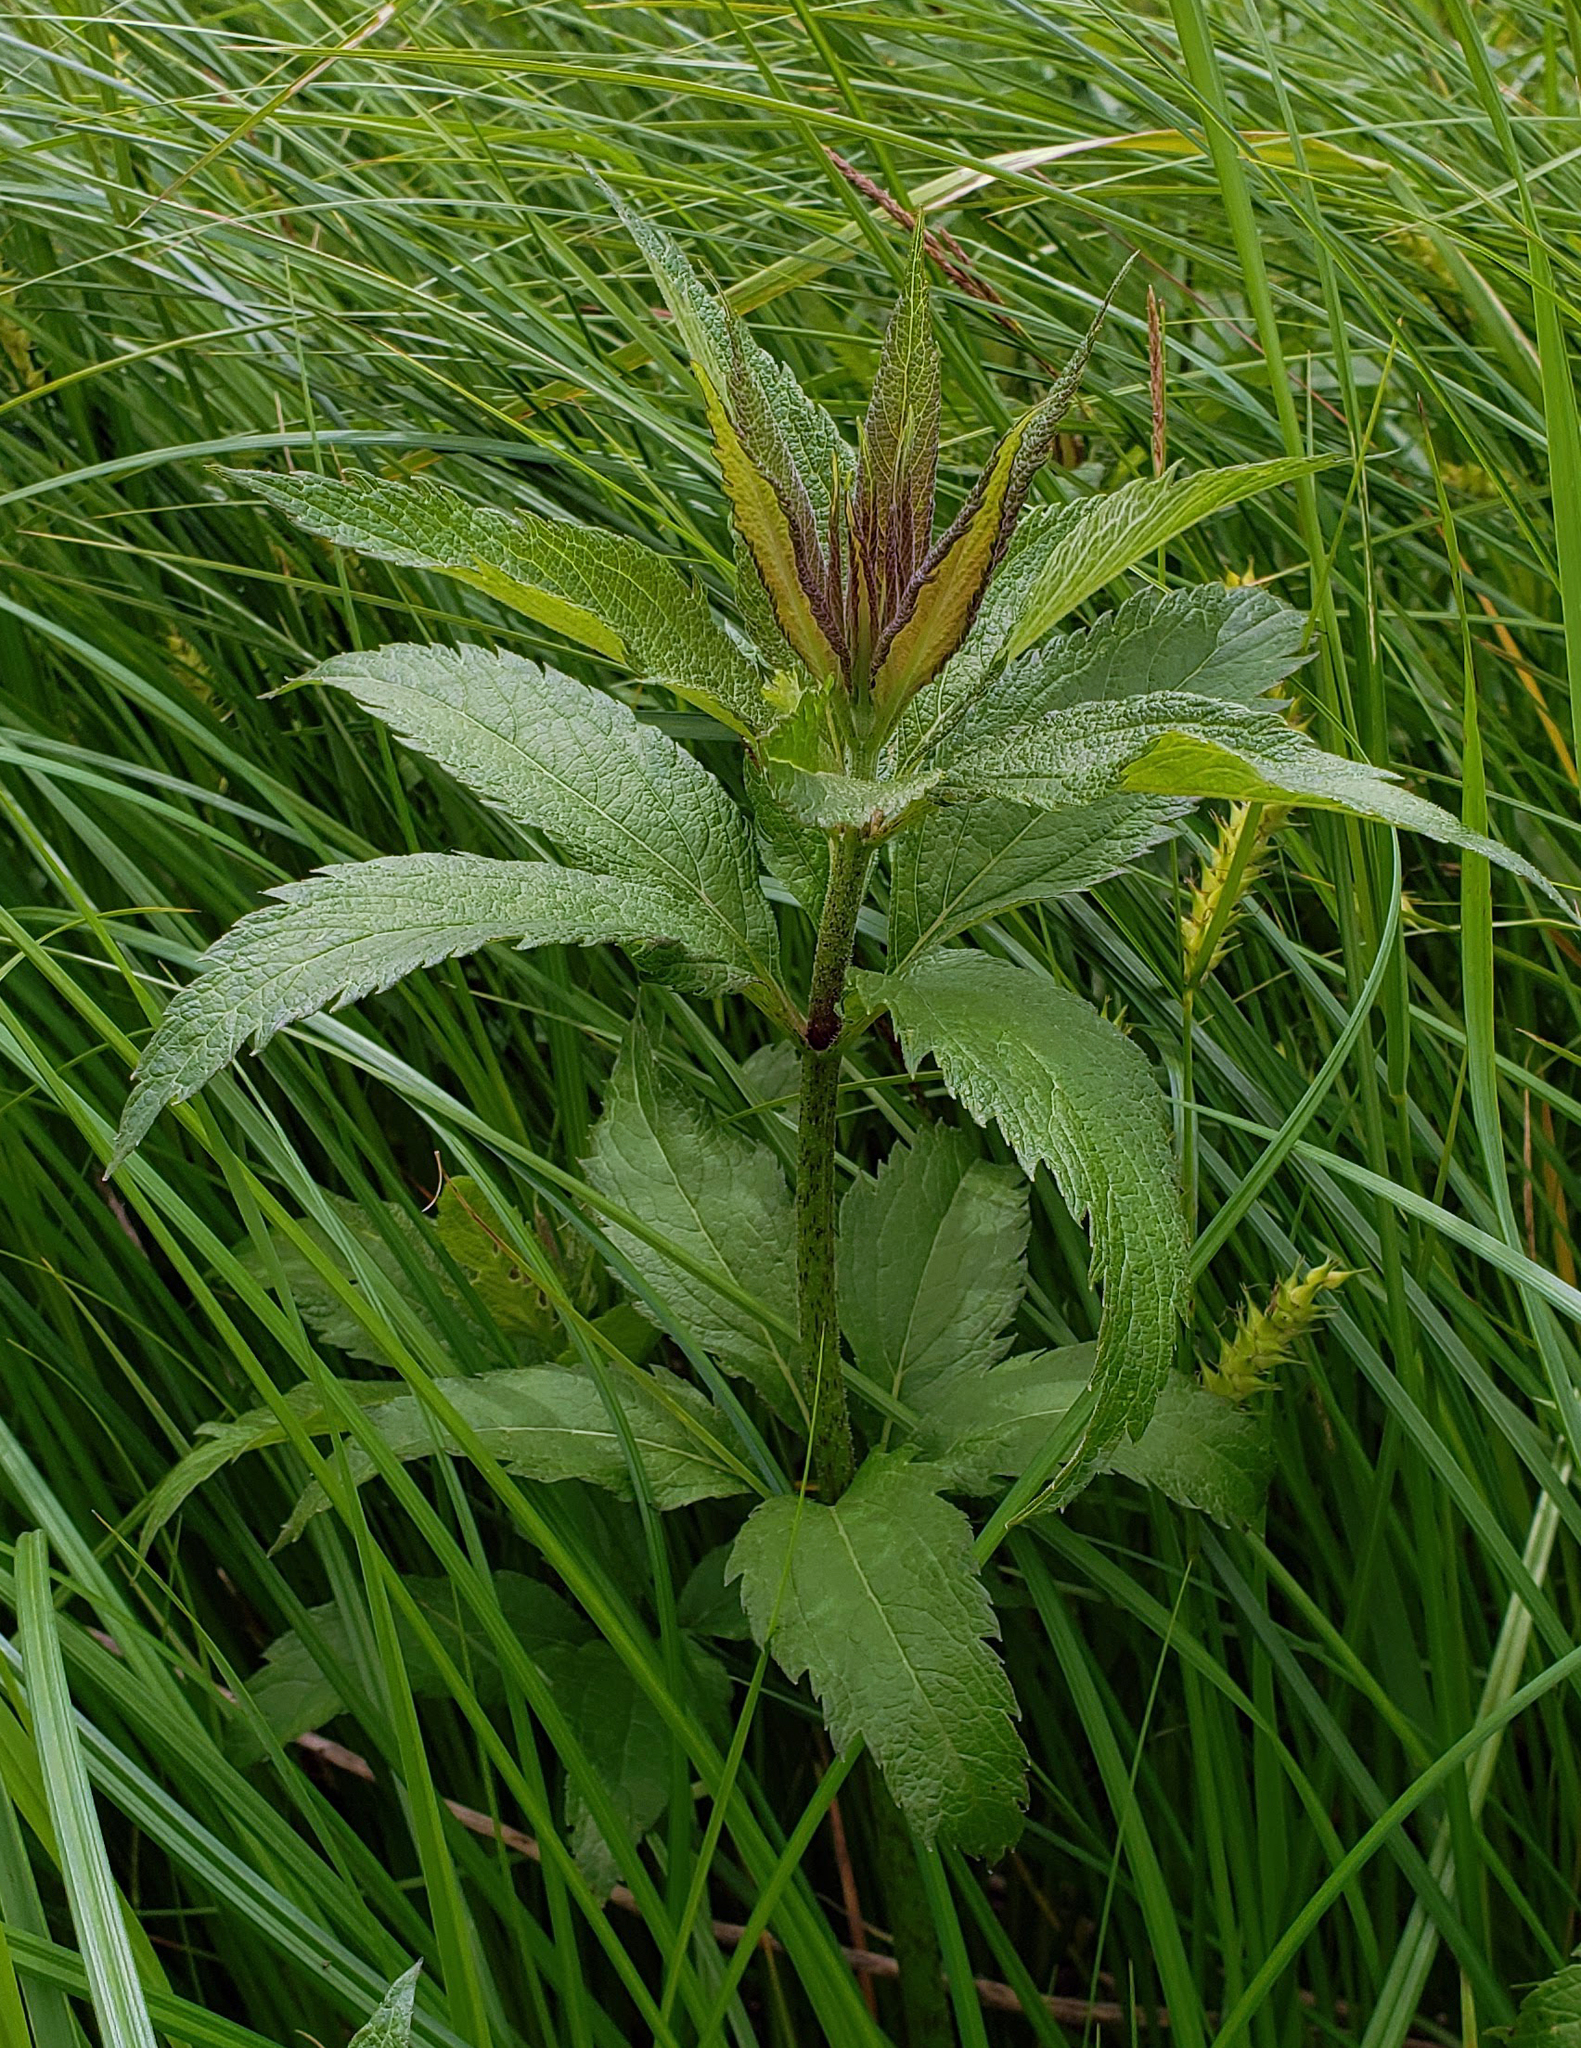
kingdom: Plantae
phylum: Tracheophyta
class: Magnoliopsida
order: Asterales
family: Asteraceae
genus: Eutrochium
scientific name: Eutrochium maculatum
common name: Spotted joe pye weed
